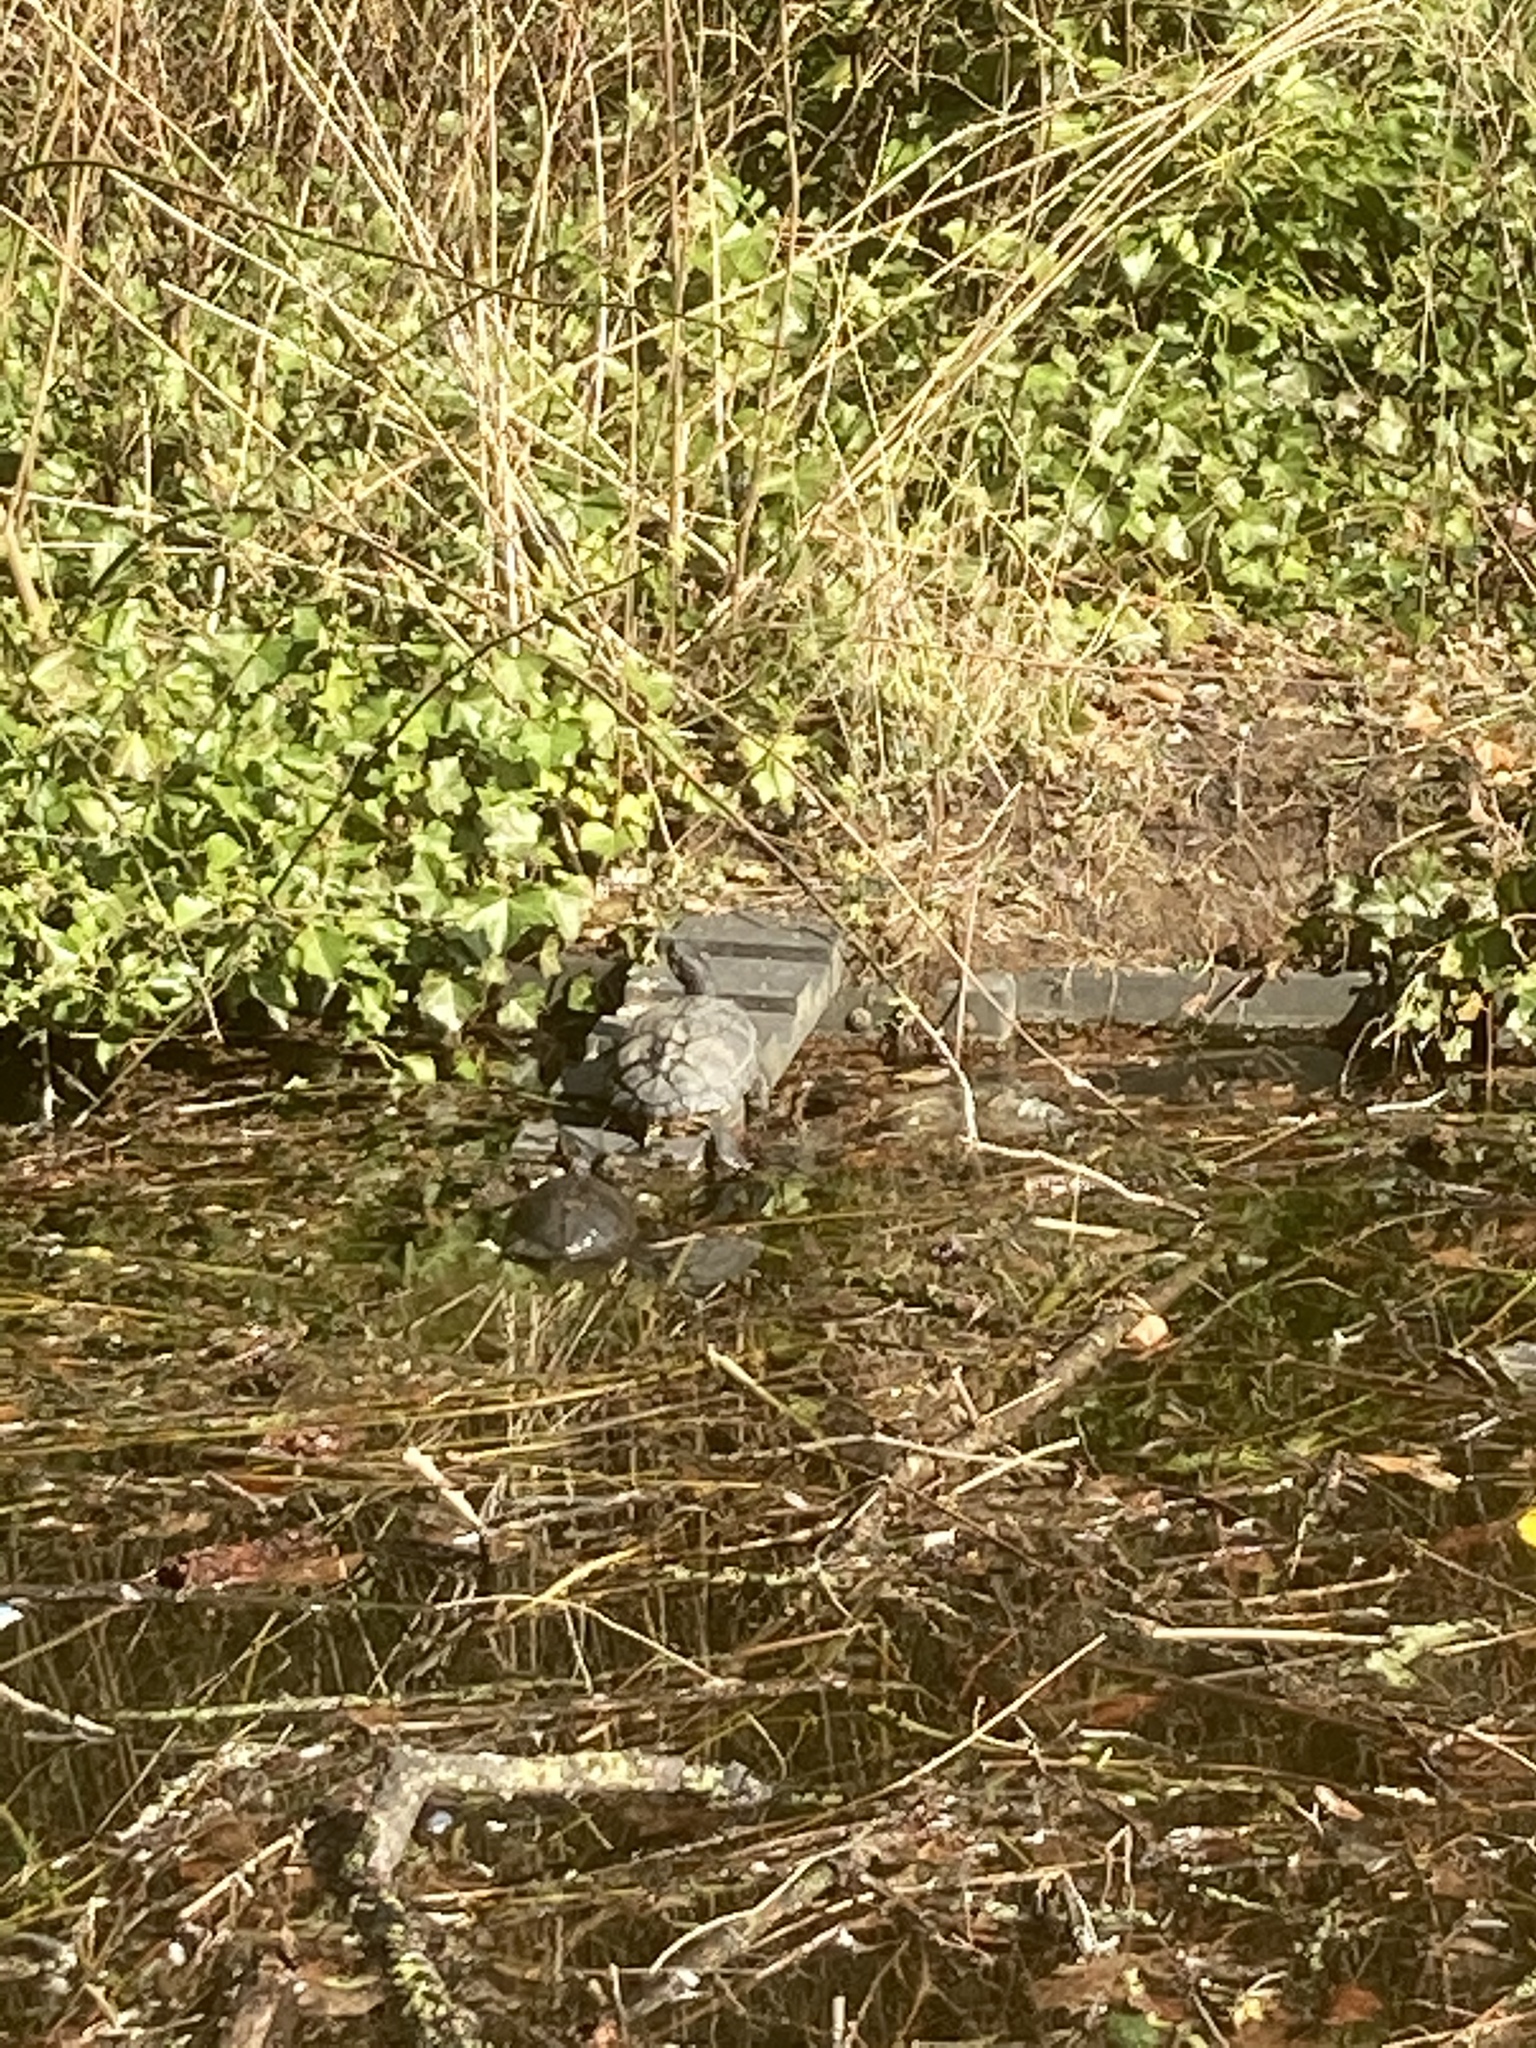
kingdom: Animalia
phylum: Chordata
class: Testudines
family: Emydidae
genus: Trachemys
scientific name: Trachemys scripta
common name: Slider
